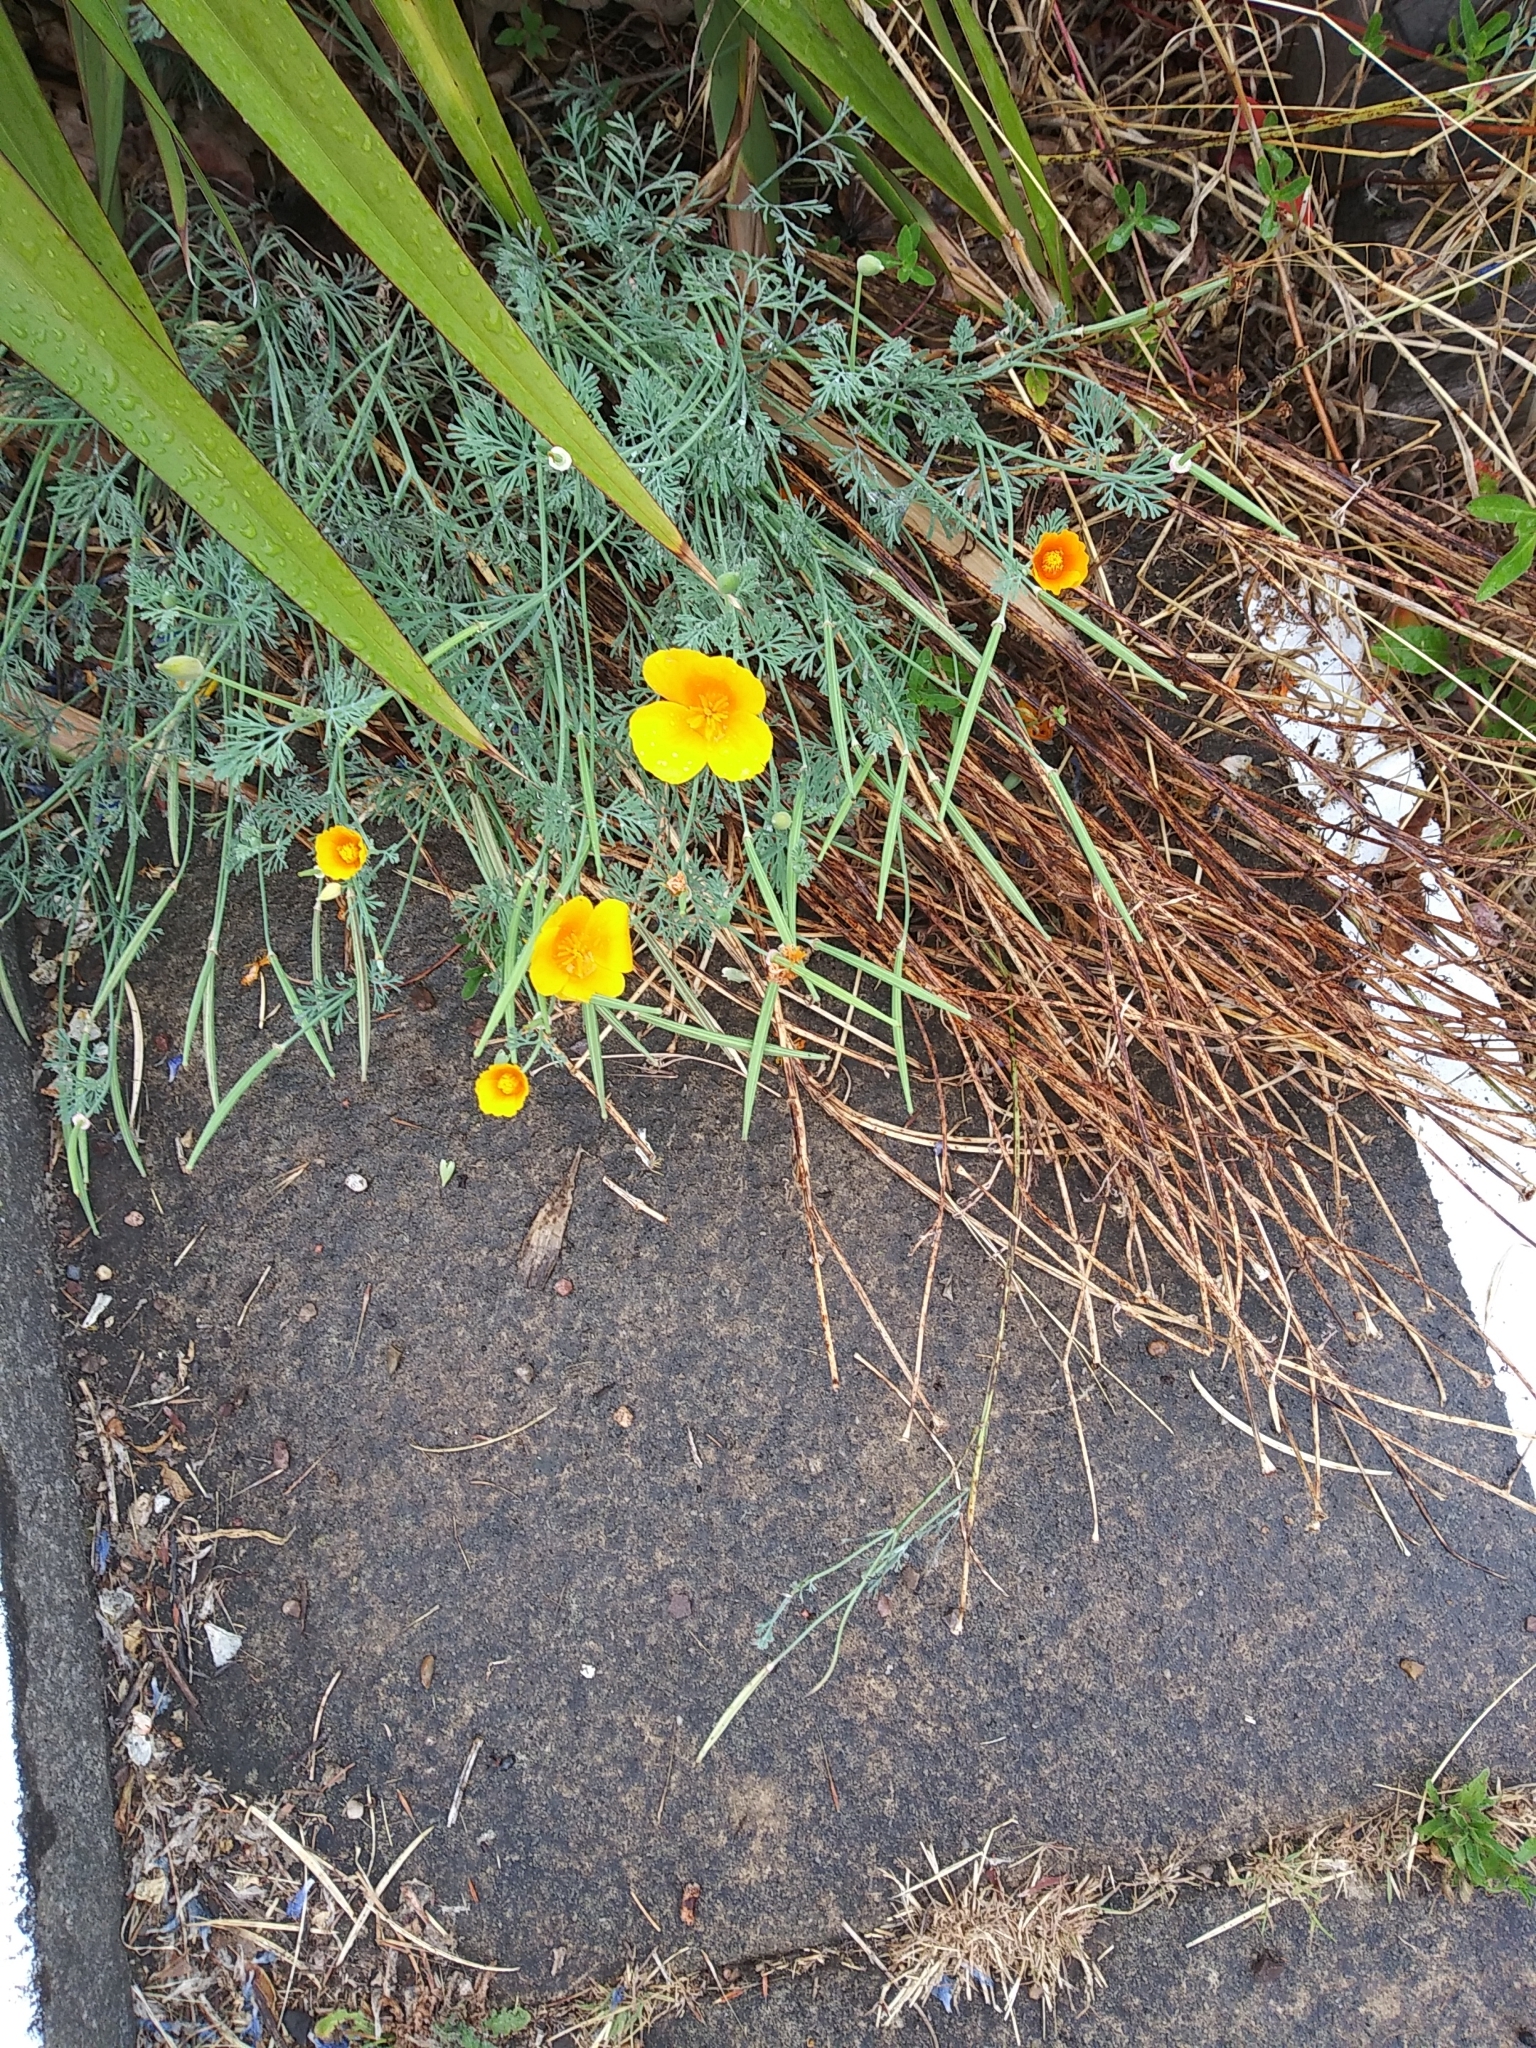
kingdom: Plantae
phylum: Tracheophyta
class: Magnoliopsida
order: Ranunculales
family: Papaveraceae
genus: Eschscholzia
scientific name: Eschscholzia californica
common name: California poppy
